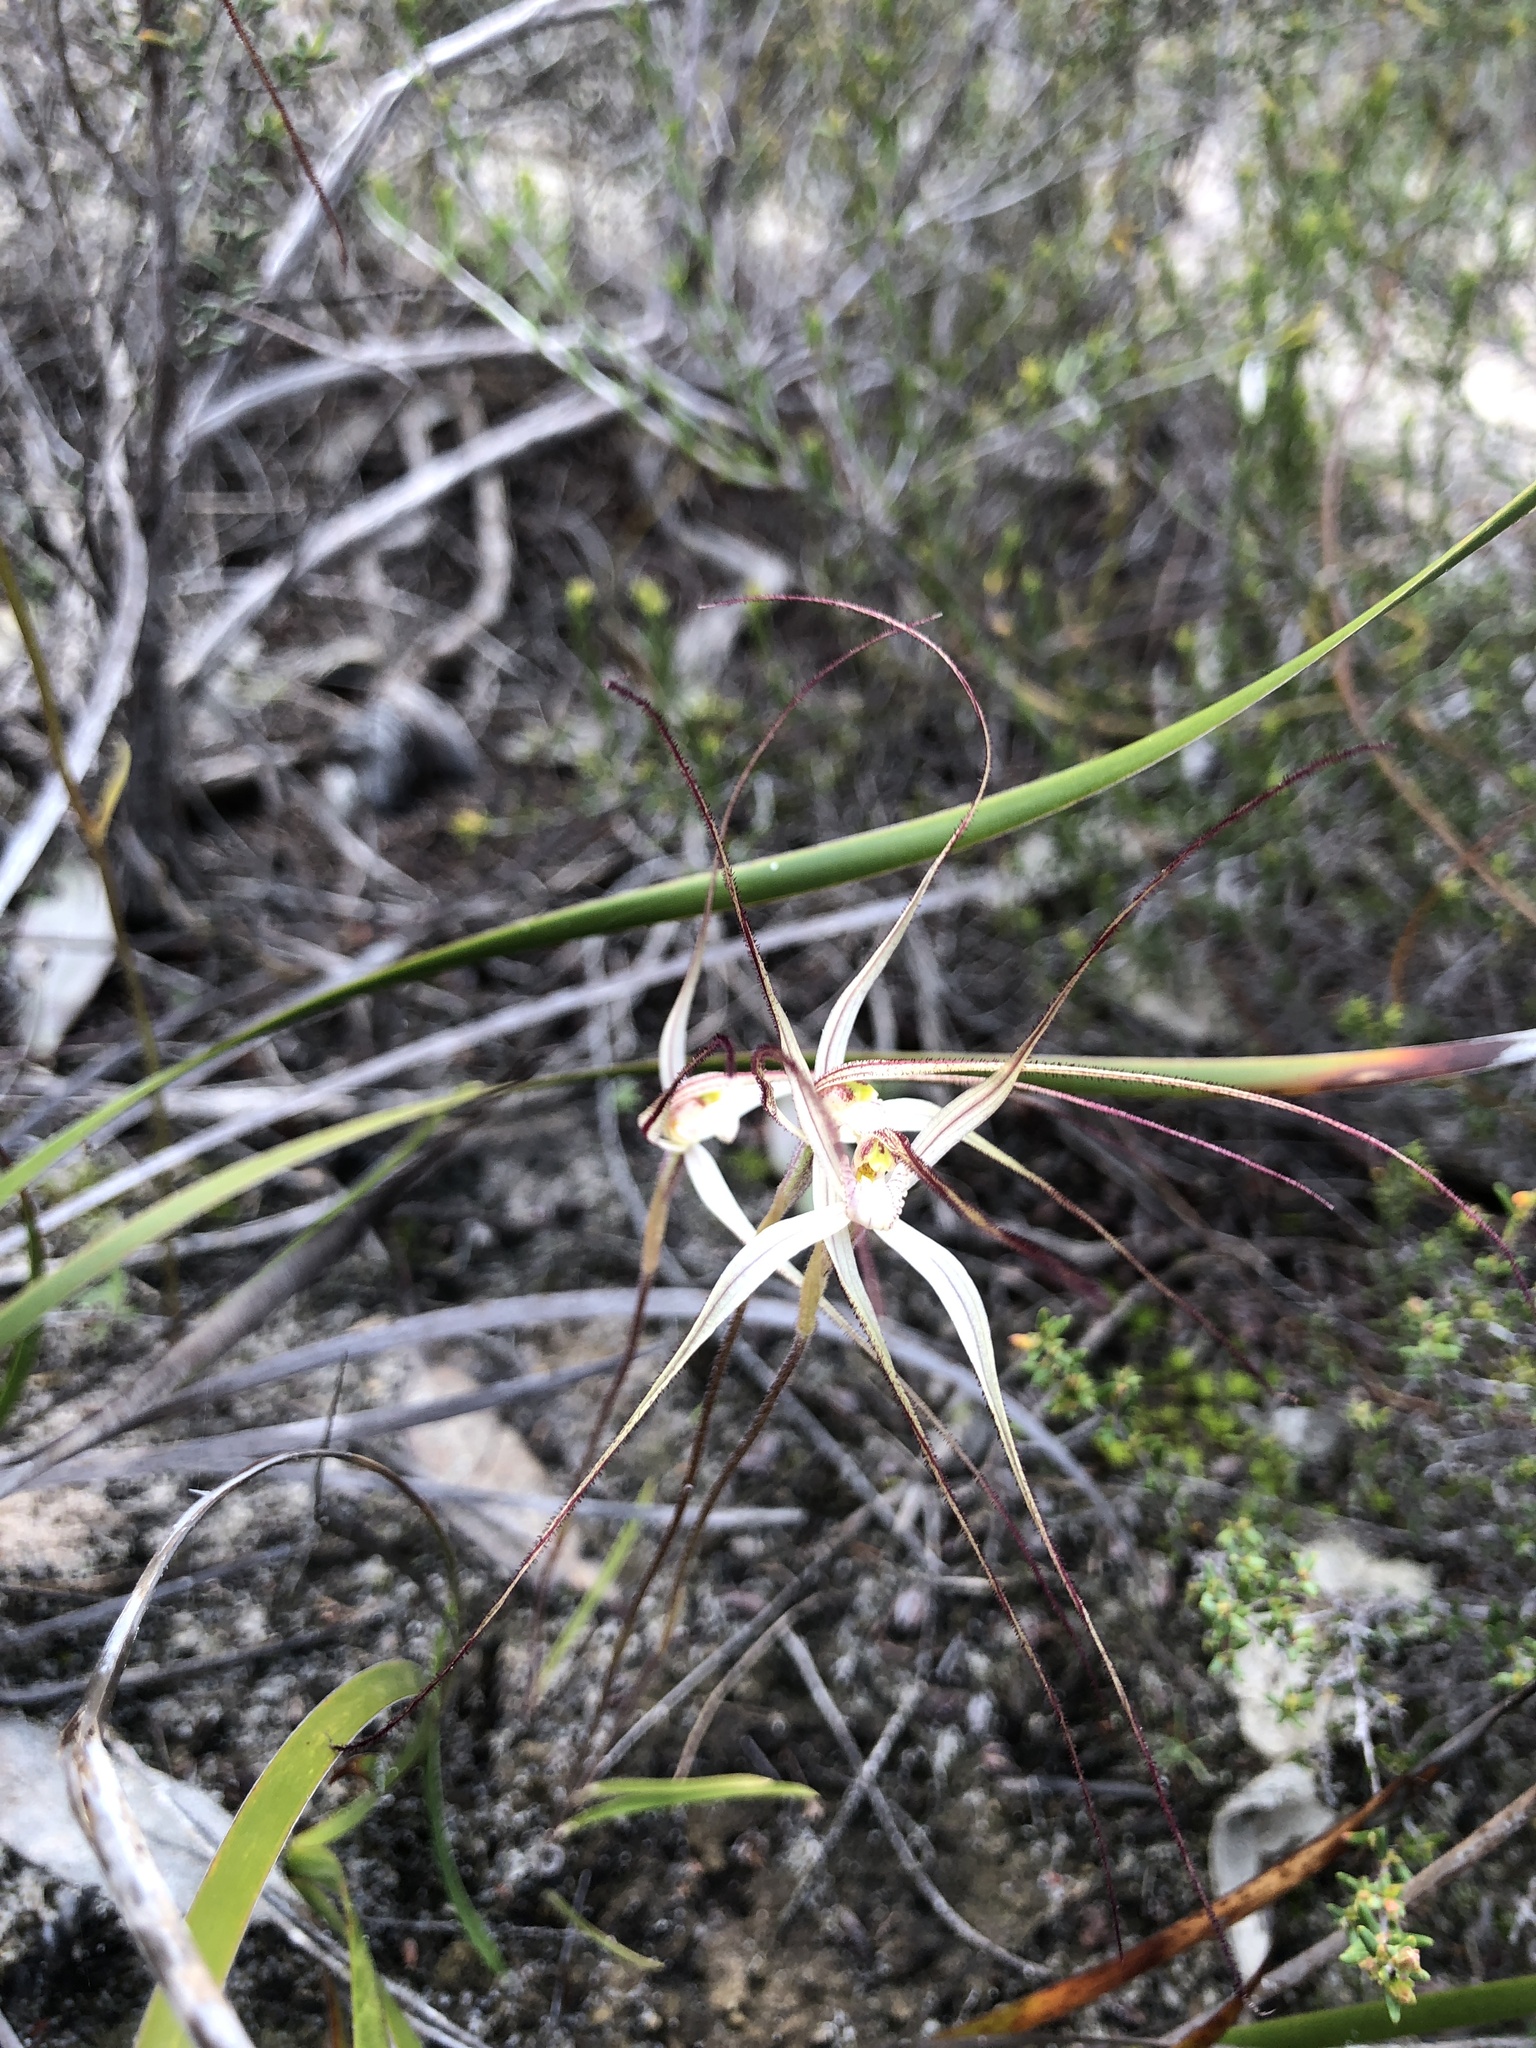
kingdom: Plantae
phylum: Tracheophyta
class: Liliopsida
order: Asparagales
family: Orchidaceae
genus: Caladenia
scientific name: Caladenia capillata
